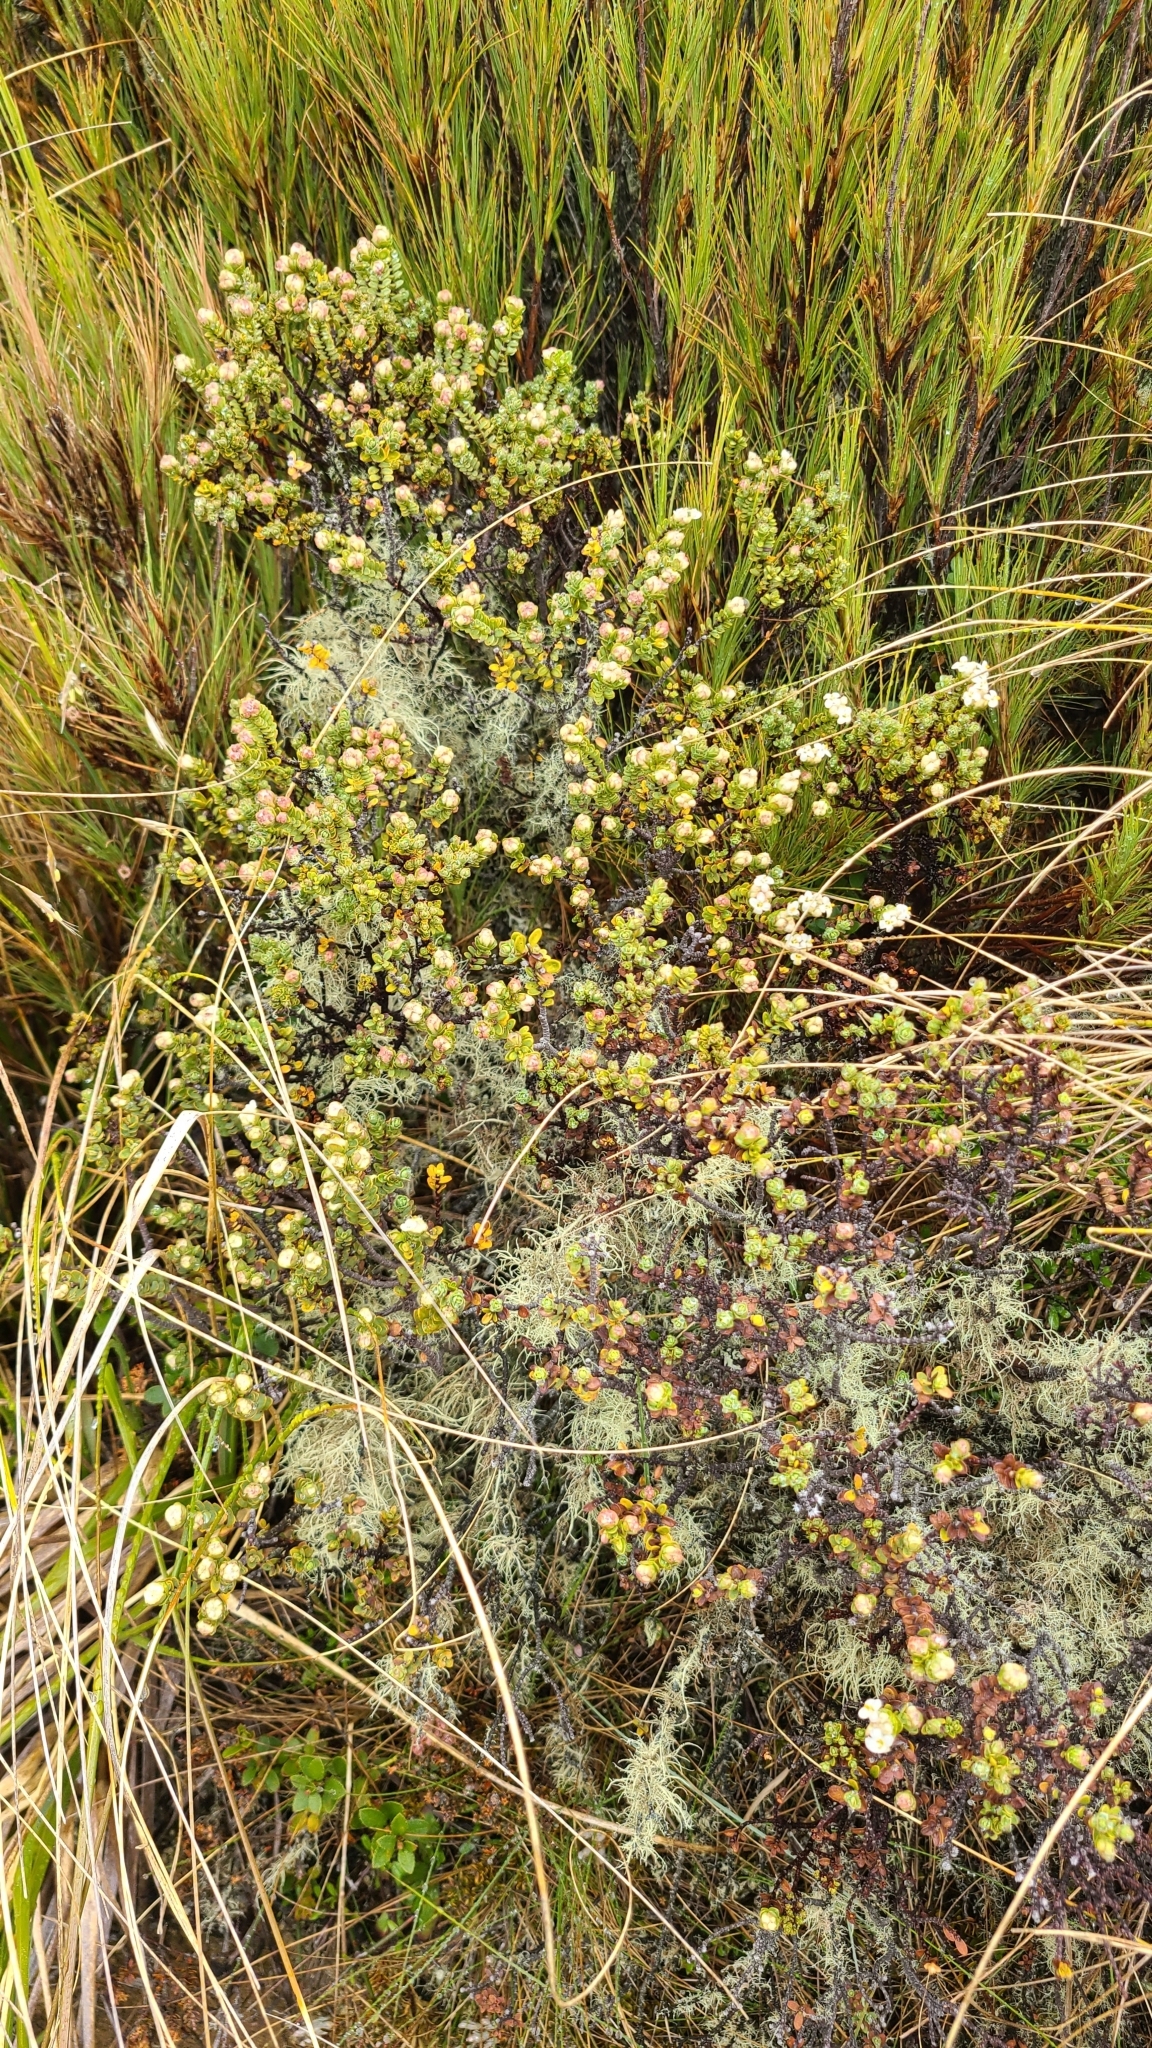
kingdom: Plantae
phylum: Tracheophyta
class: Magnoliopsida
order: Malvales
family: Thymelaeaceae
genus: Pimelea
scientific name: Pimelea traversii
